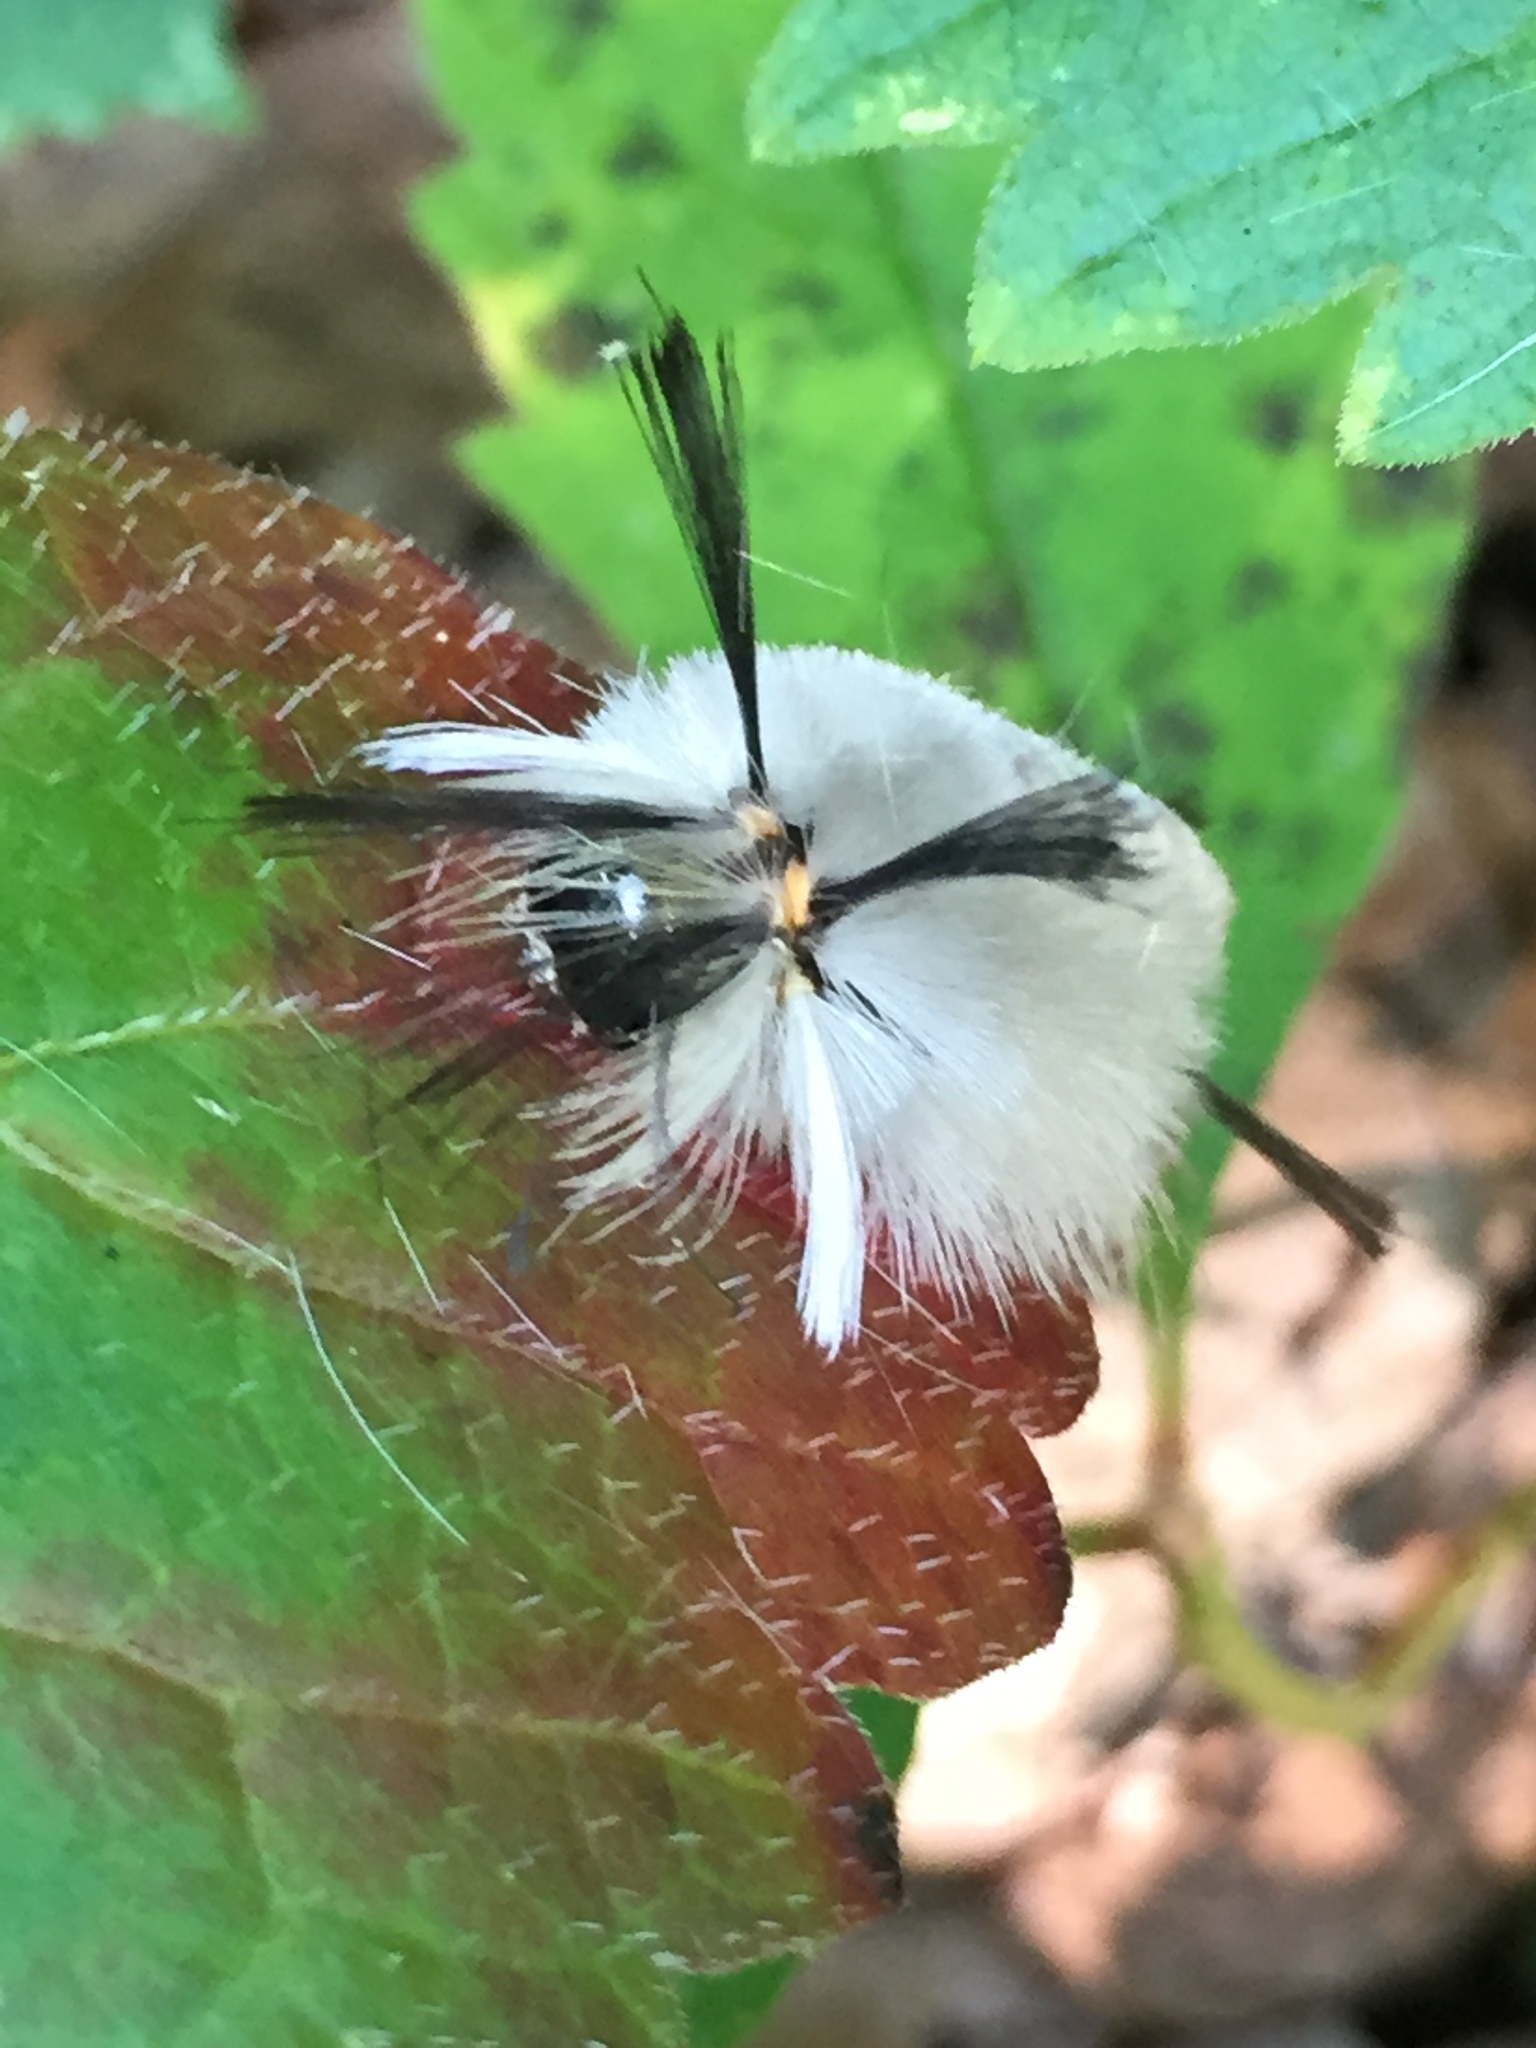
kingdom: Animalia
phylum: Arthropoda
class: Insecta
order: Lepidoptera
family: Erebidae
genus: Halysidota
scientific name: Halysidota tessellaris
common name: Banded tussock moth
